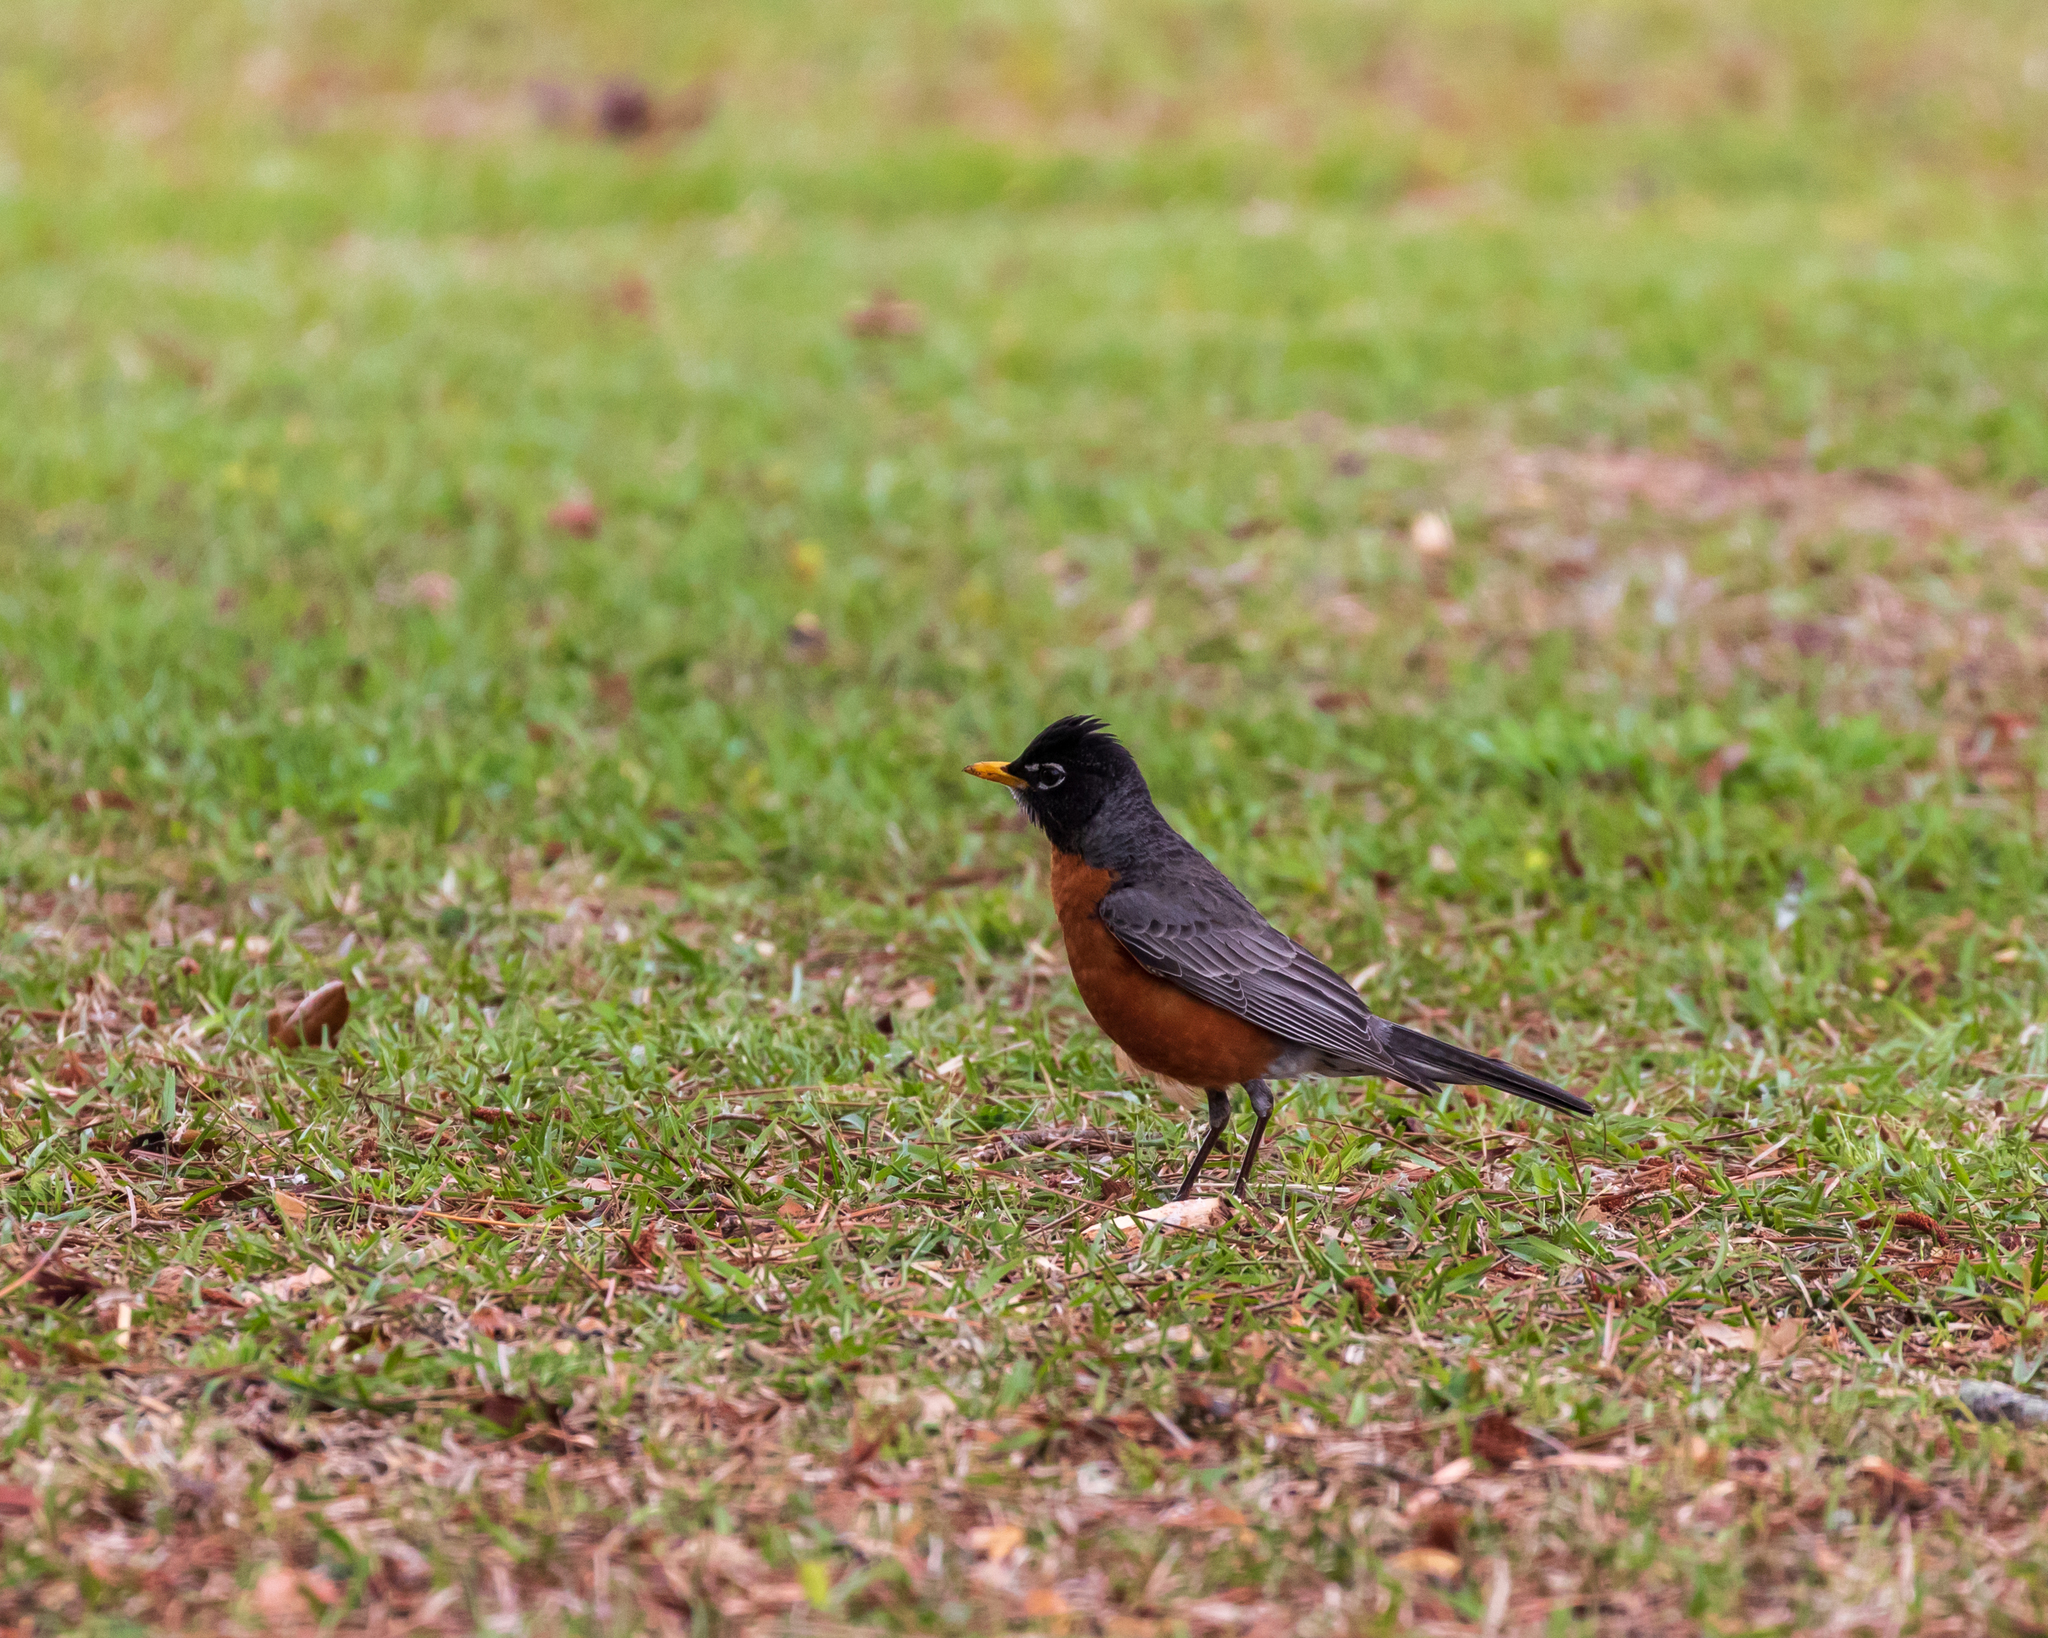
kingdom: Animalia
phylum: Chordata
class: Aves
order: Passeriformes
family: Turdidae
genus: Turdus
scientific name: Turdus migratorius
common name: American robin
